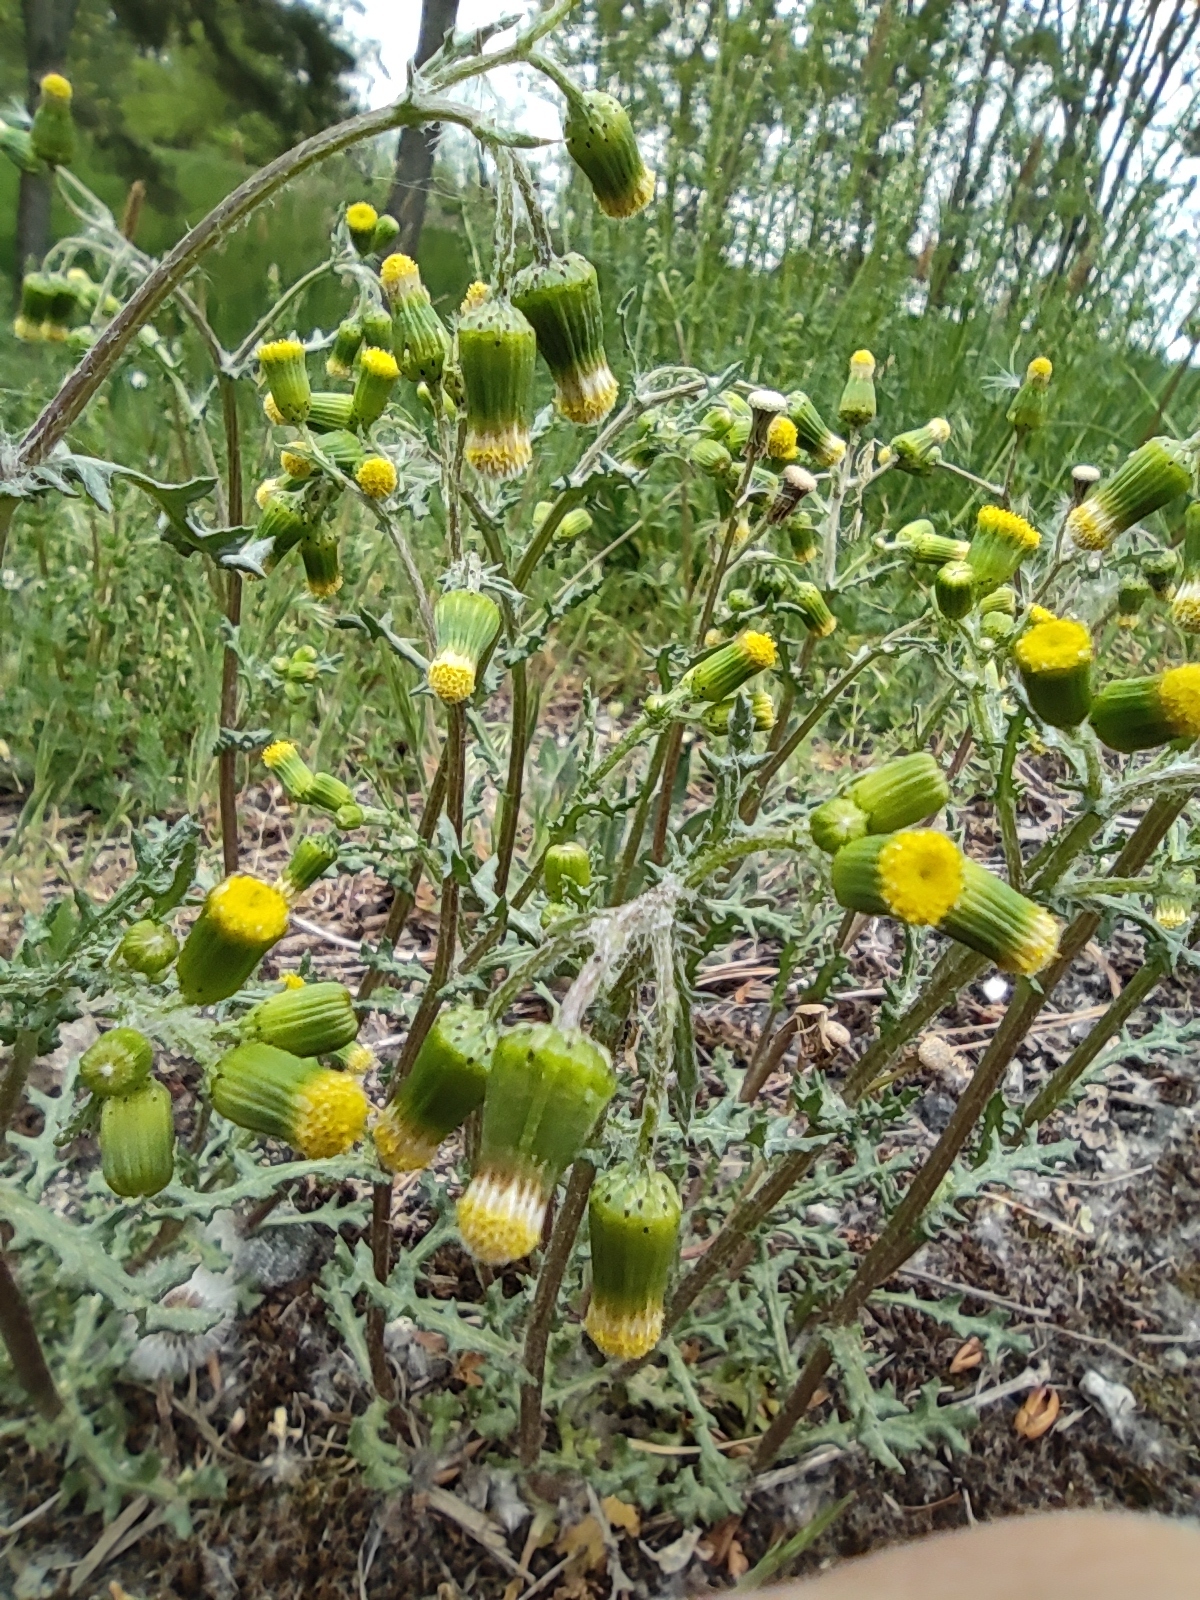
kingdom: Plantae
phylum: Tracheophyta
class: Magnoliopsida
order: Asterales
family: Asteraceae
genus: Senecio
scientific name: Senecio vulgaris
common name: Old-man-in-the-spring
